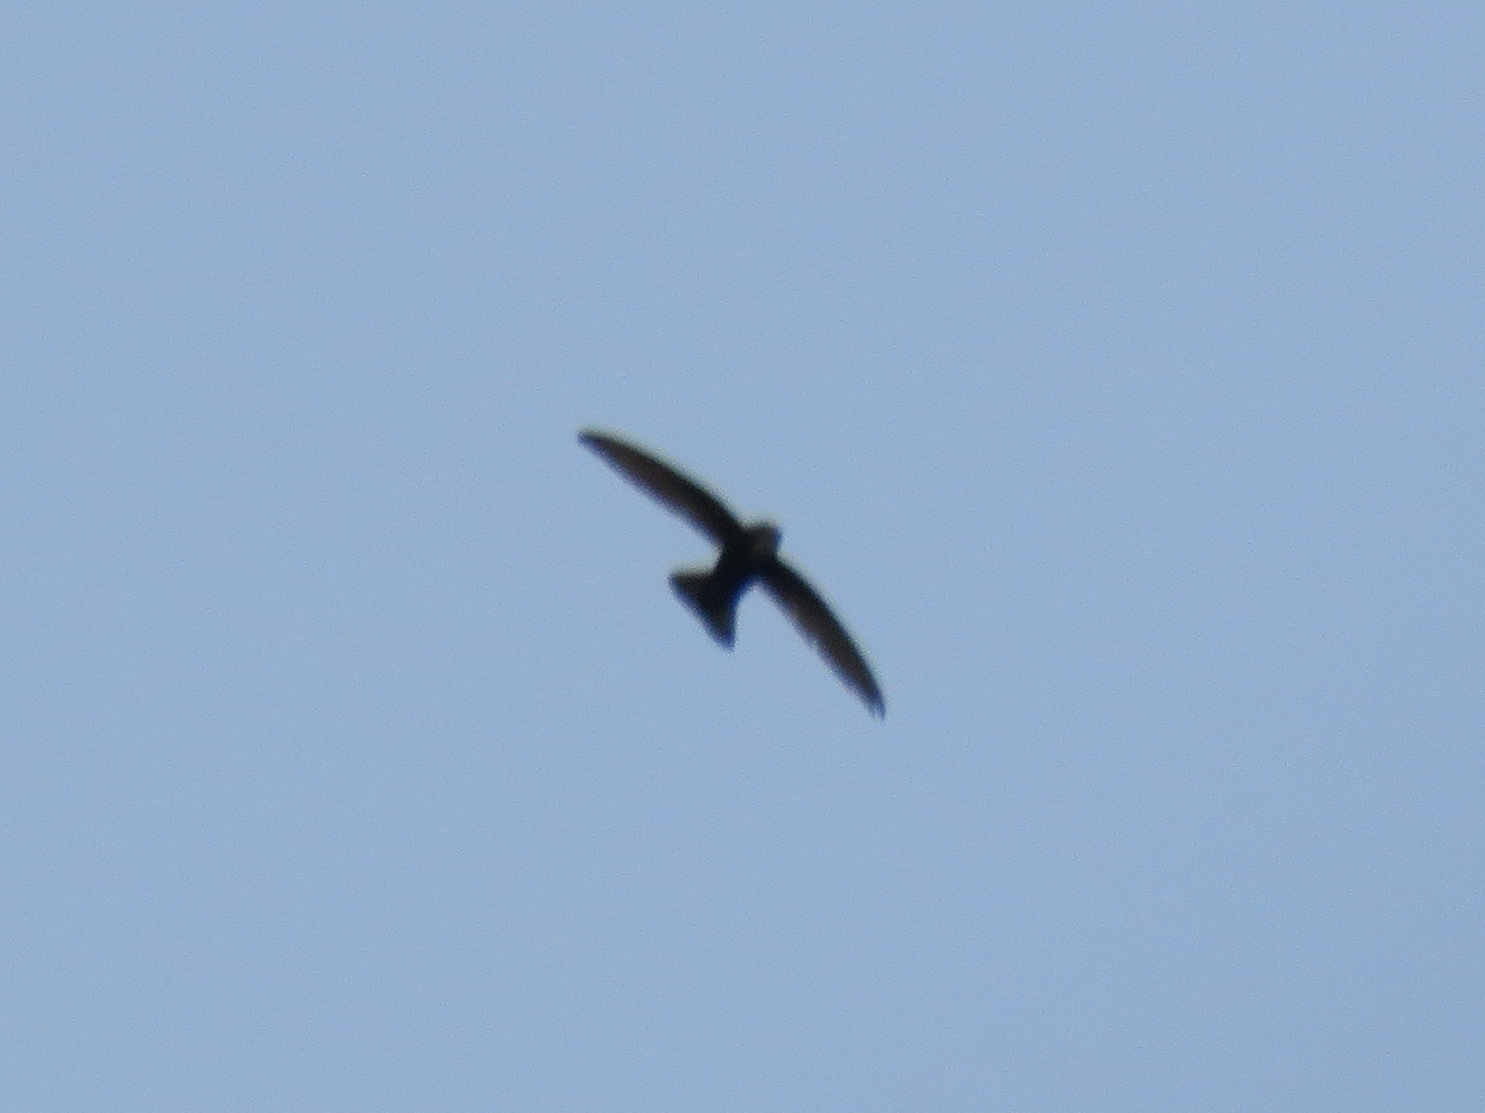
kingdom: Animalia
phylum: Chordata
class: Aves
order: Apodiformes
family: Apodidae
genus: Apus
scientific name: Apus nipalensis
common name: House swift
